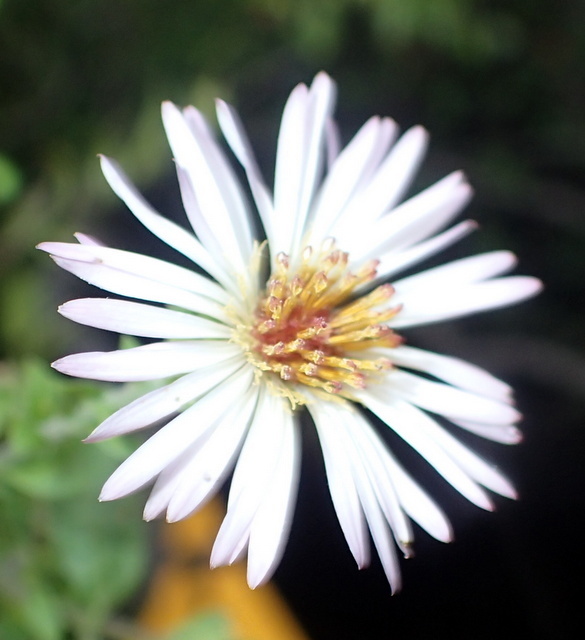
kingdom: Plantae
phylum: Tracheophyta
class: Magnoliopsida
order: Asterales
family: Asteraceae
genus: Ampelaster
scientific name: Ampelaster carolinianus
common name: Climbing aster
